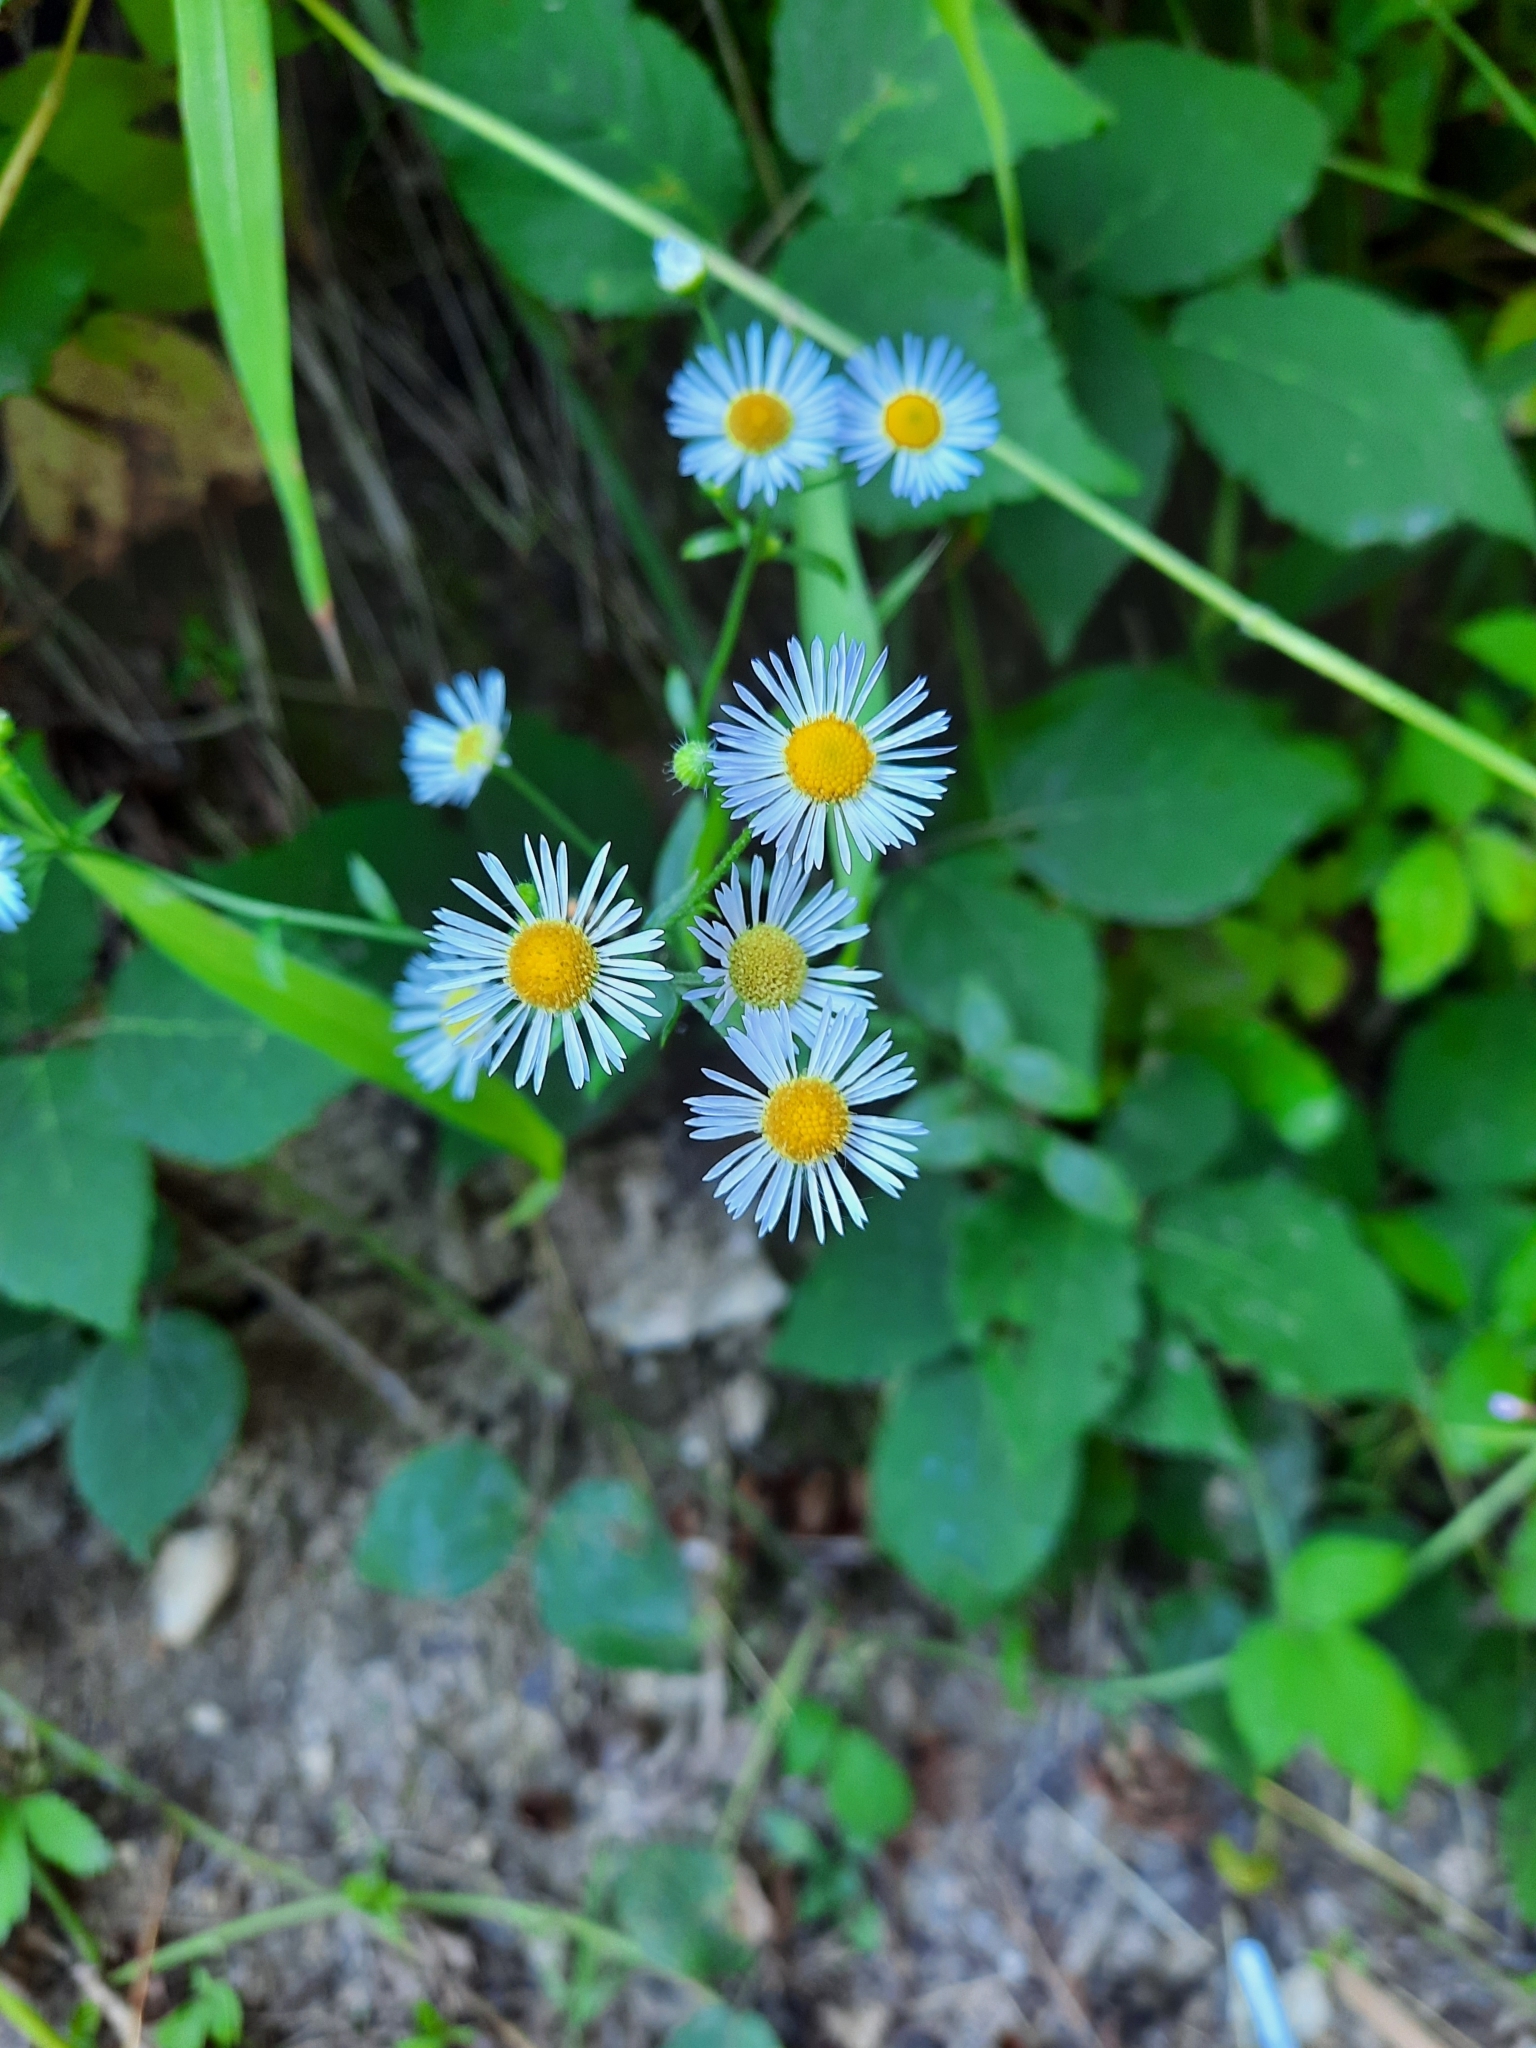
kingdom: Plantae
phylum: Tracheophyta
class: Magnoliopsida
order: Asterales
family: Asteraceae
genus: Erigeron
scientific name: Erigeron annuus
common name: Tall fleabane
